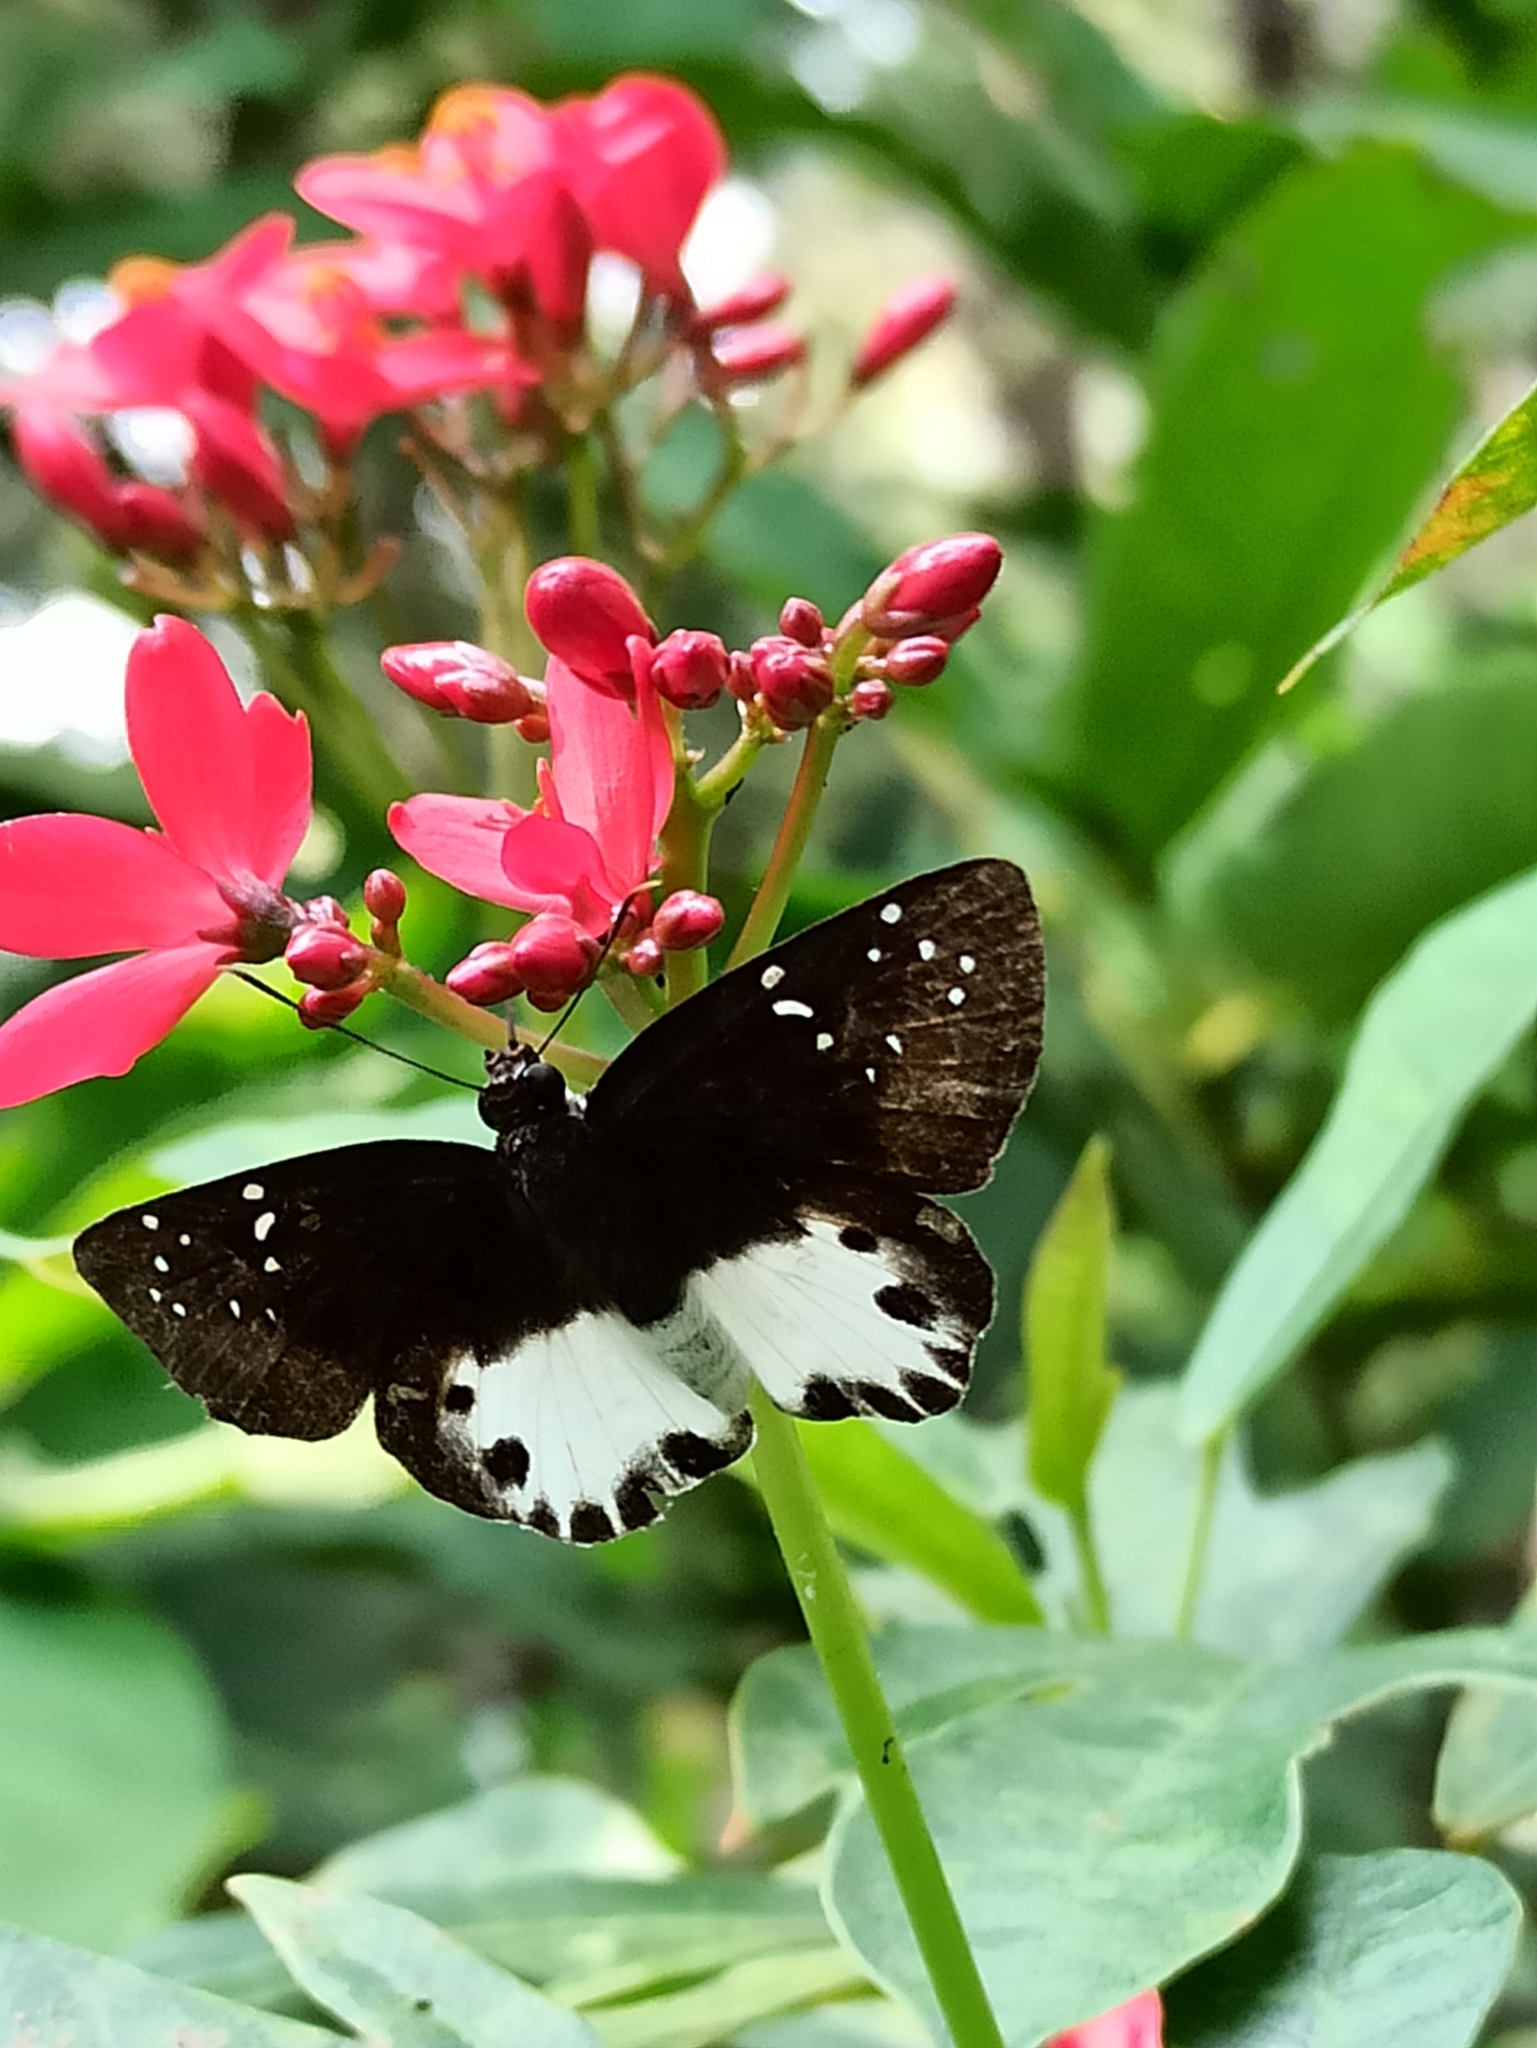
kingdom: Animalia
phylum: Arthropoda
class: Insecta
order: Lepidoptera
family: Hesperiidae
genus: Tagiades
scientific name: Tagiades litigiosa
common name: Water snow flat
